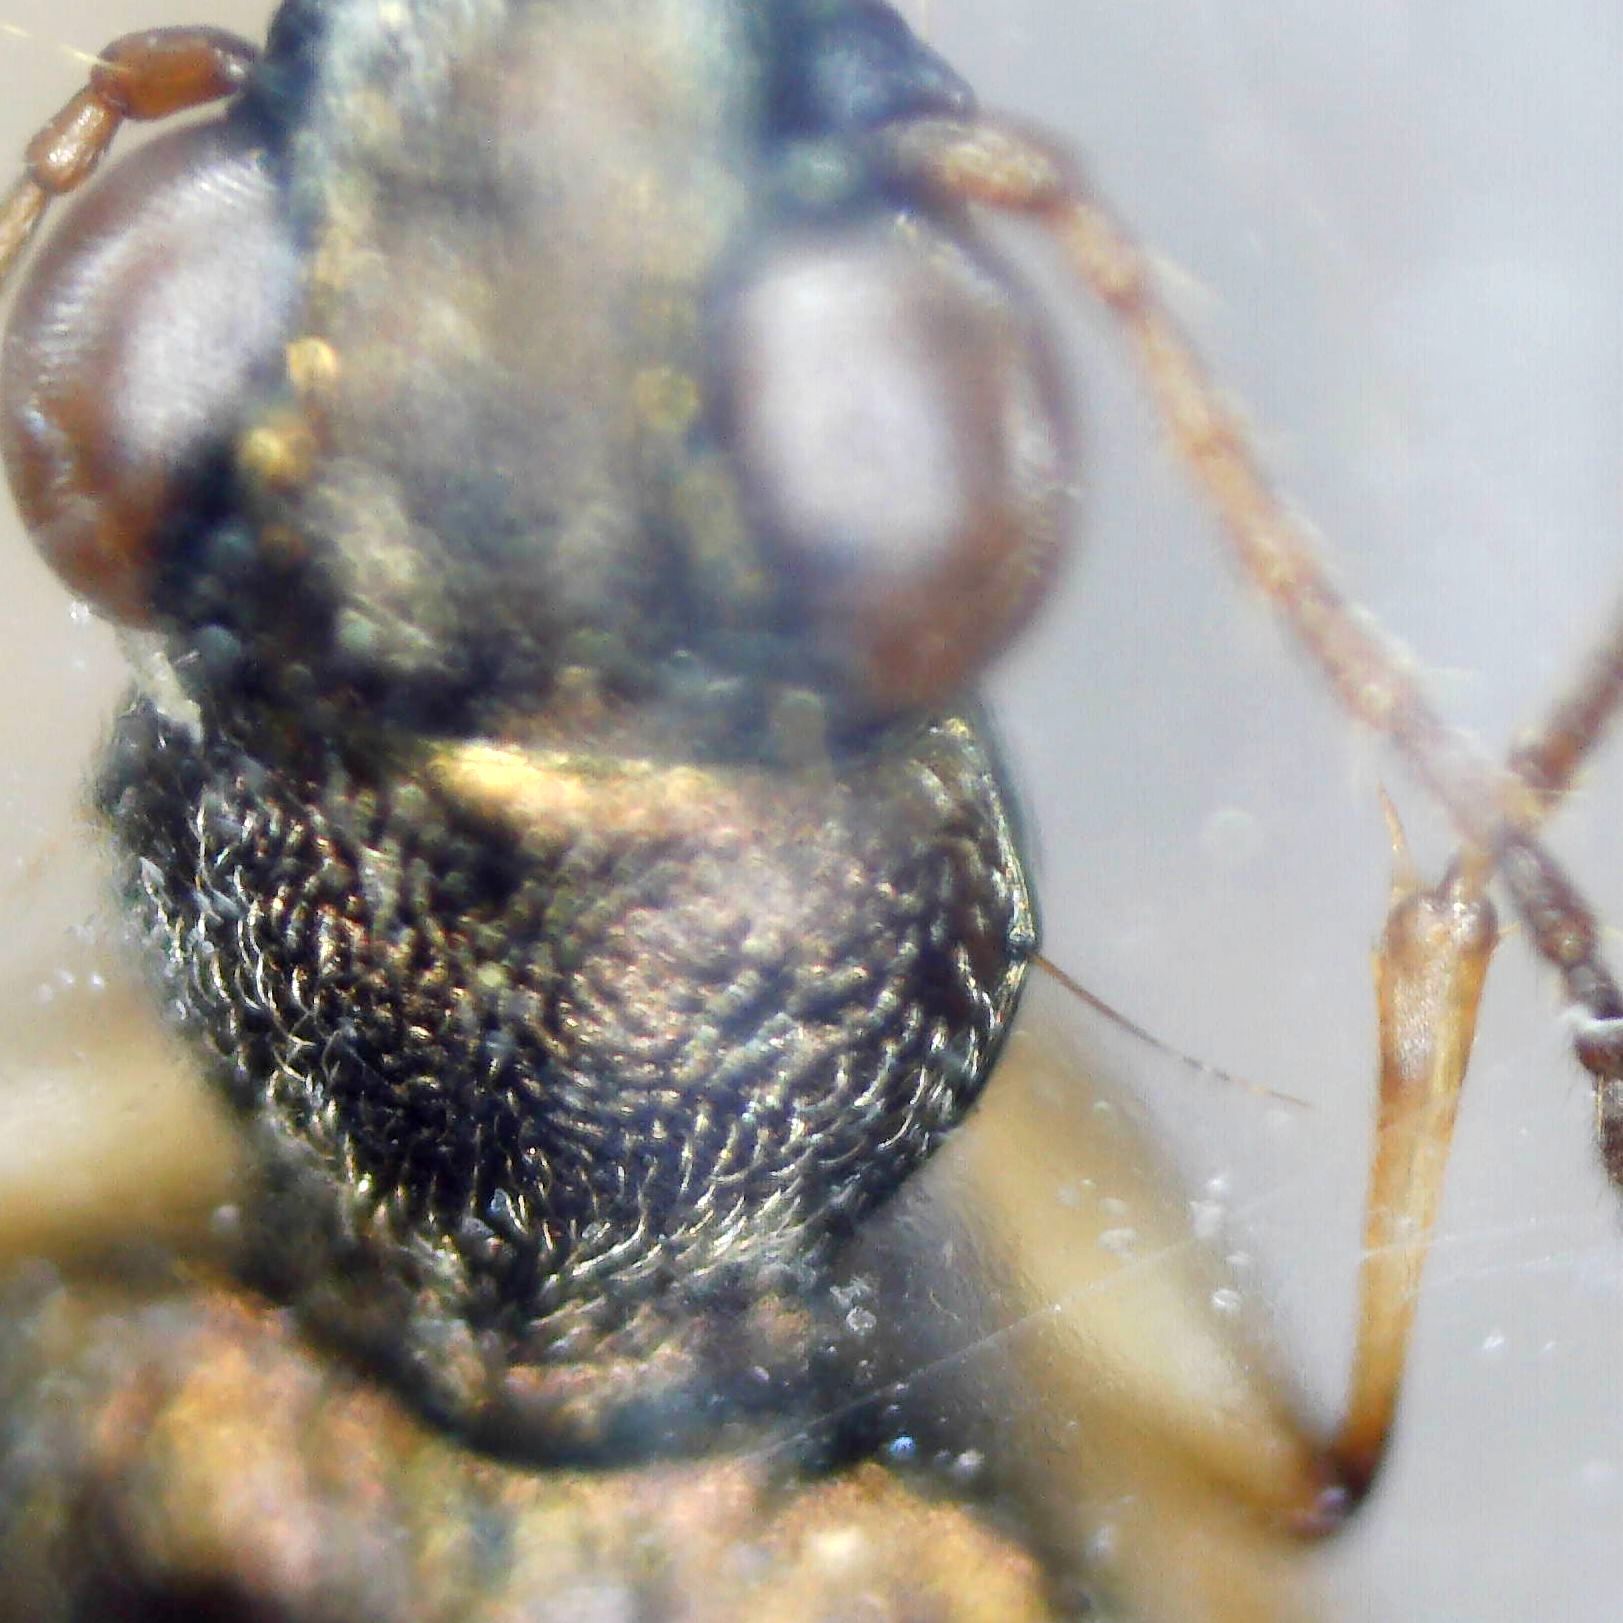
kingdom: Animalia
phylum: Arthropoda
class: Insecta
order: Coleoptera
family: Carabidae
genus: Asaphidion
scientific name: Asaphidion curtum
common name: Ground beetle
